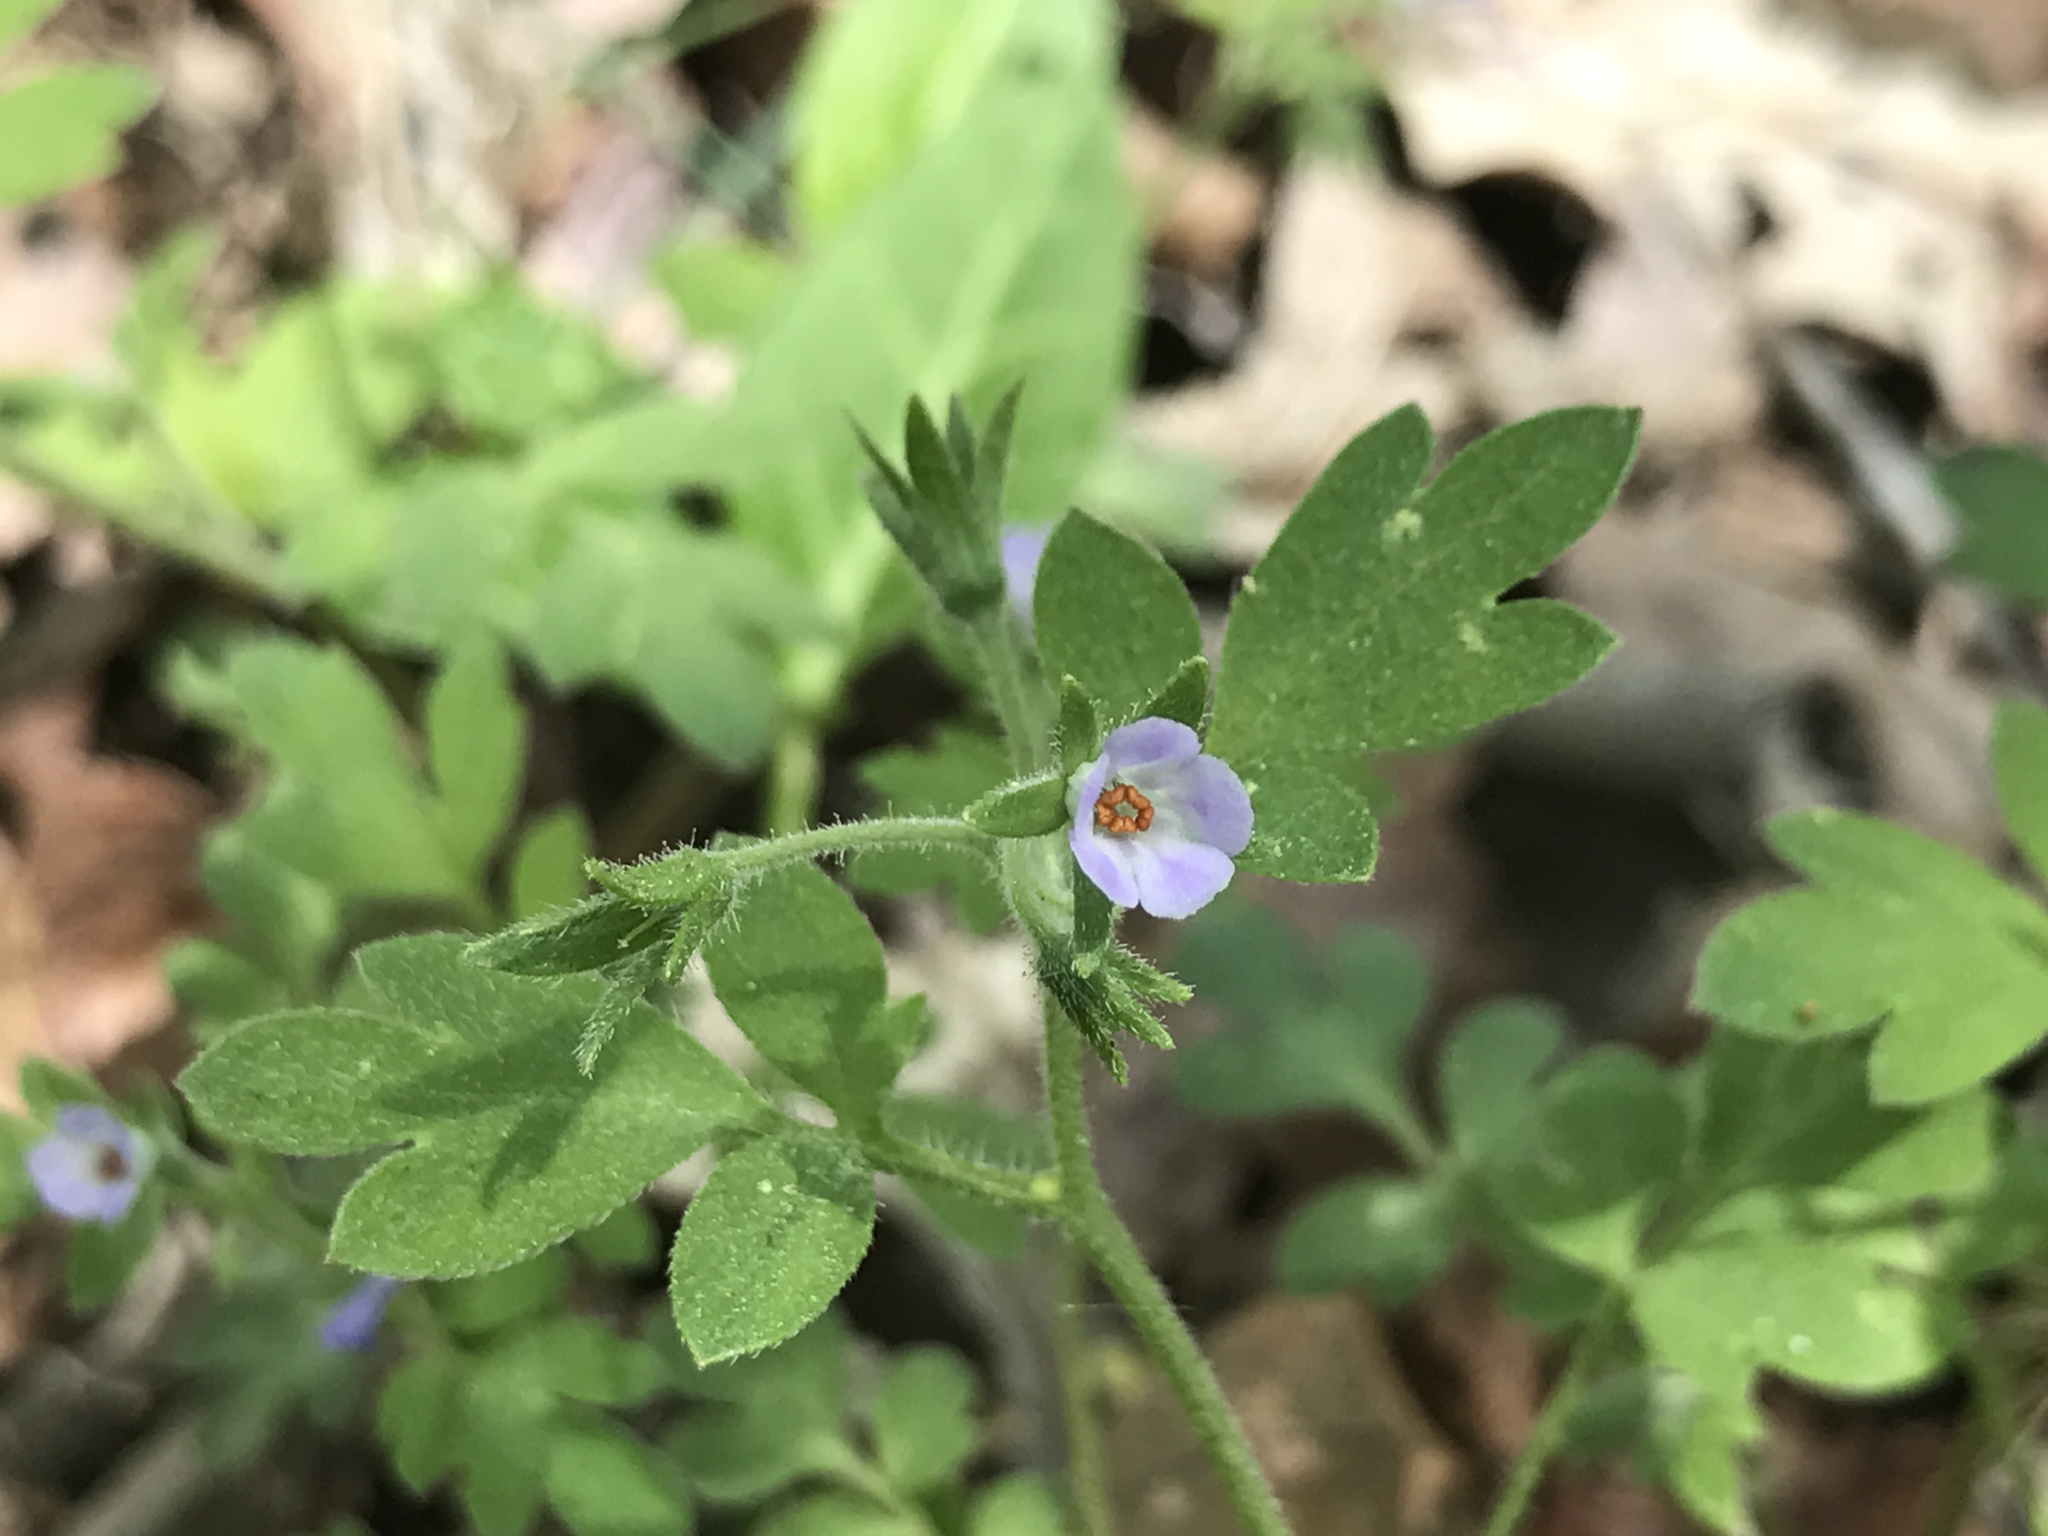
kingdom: Plantae
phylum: Tracheophyta
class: Magnoliopsida
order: Boraginales
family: Hydrophyllaceae
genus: Phacelia
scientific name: Phacelia covillei
